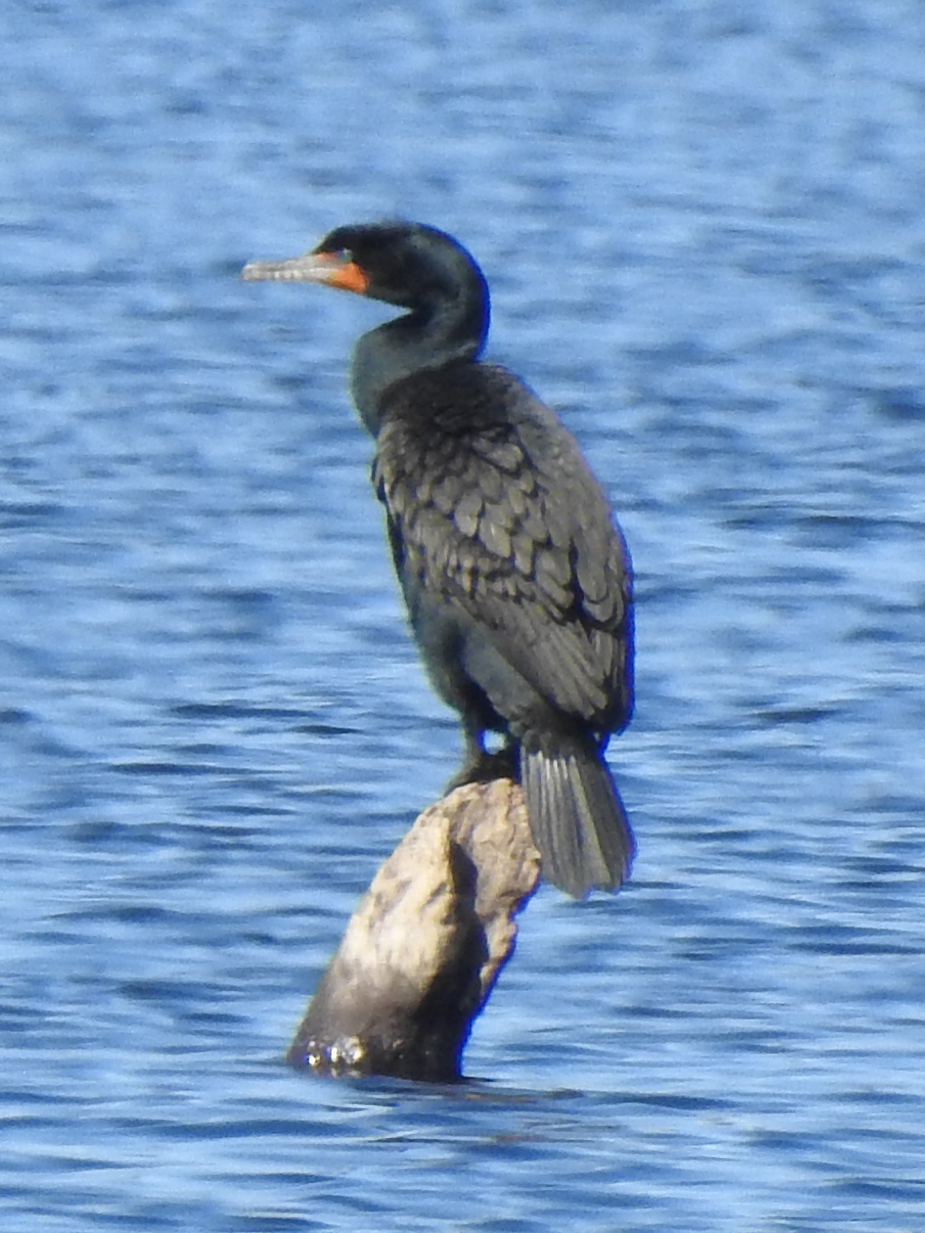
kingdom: Animalia
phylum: Chordata
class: Aves
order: Suliformes
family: Phalacrocoracidae
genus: Phalacrocorax
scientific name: Phalacrocorax auritus
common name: Double-crested cormorant
